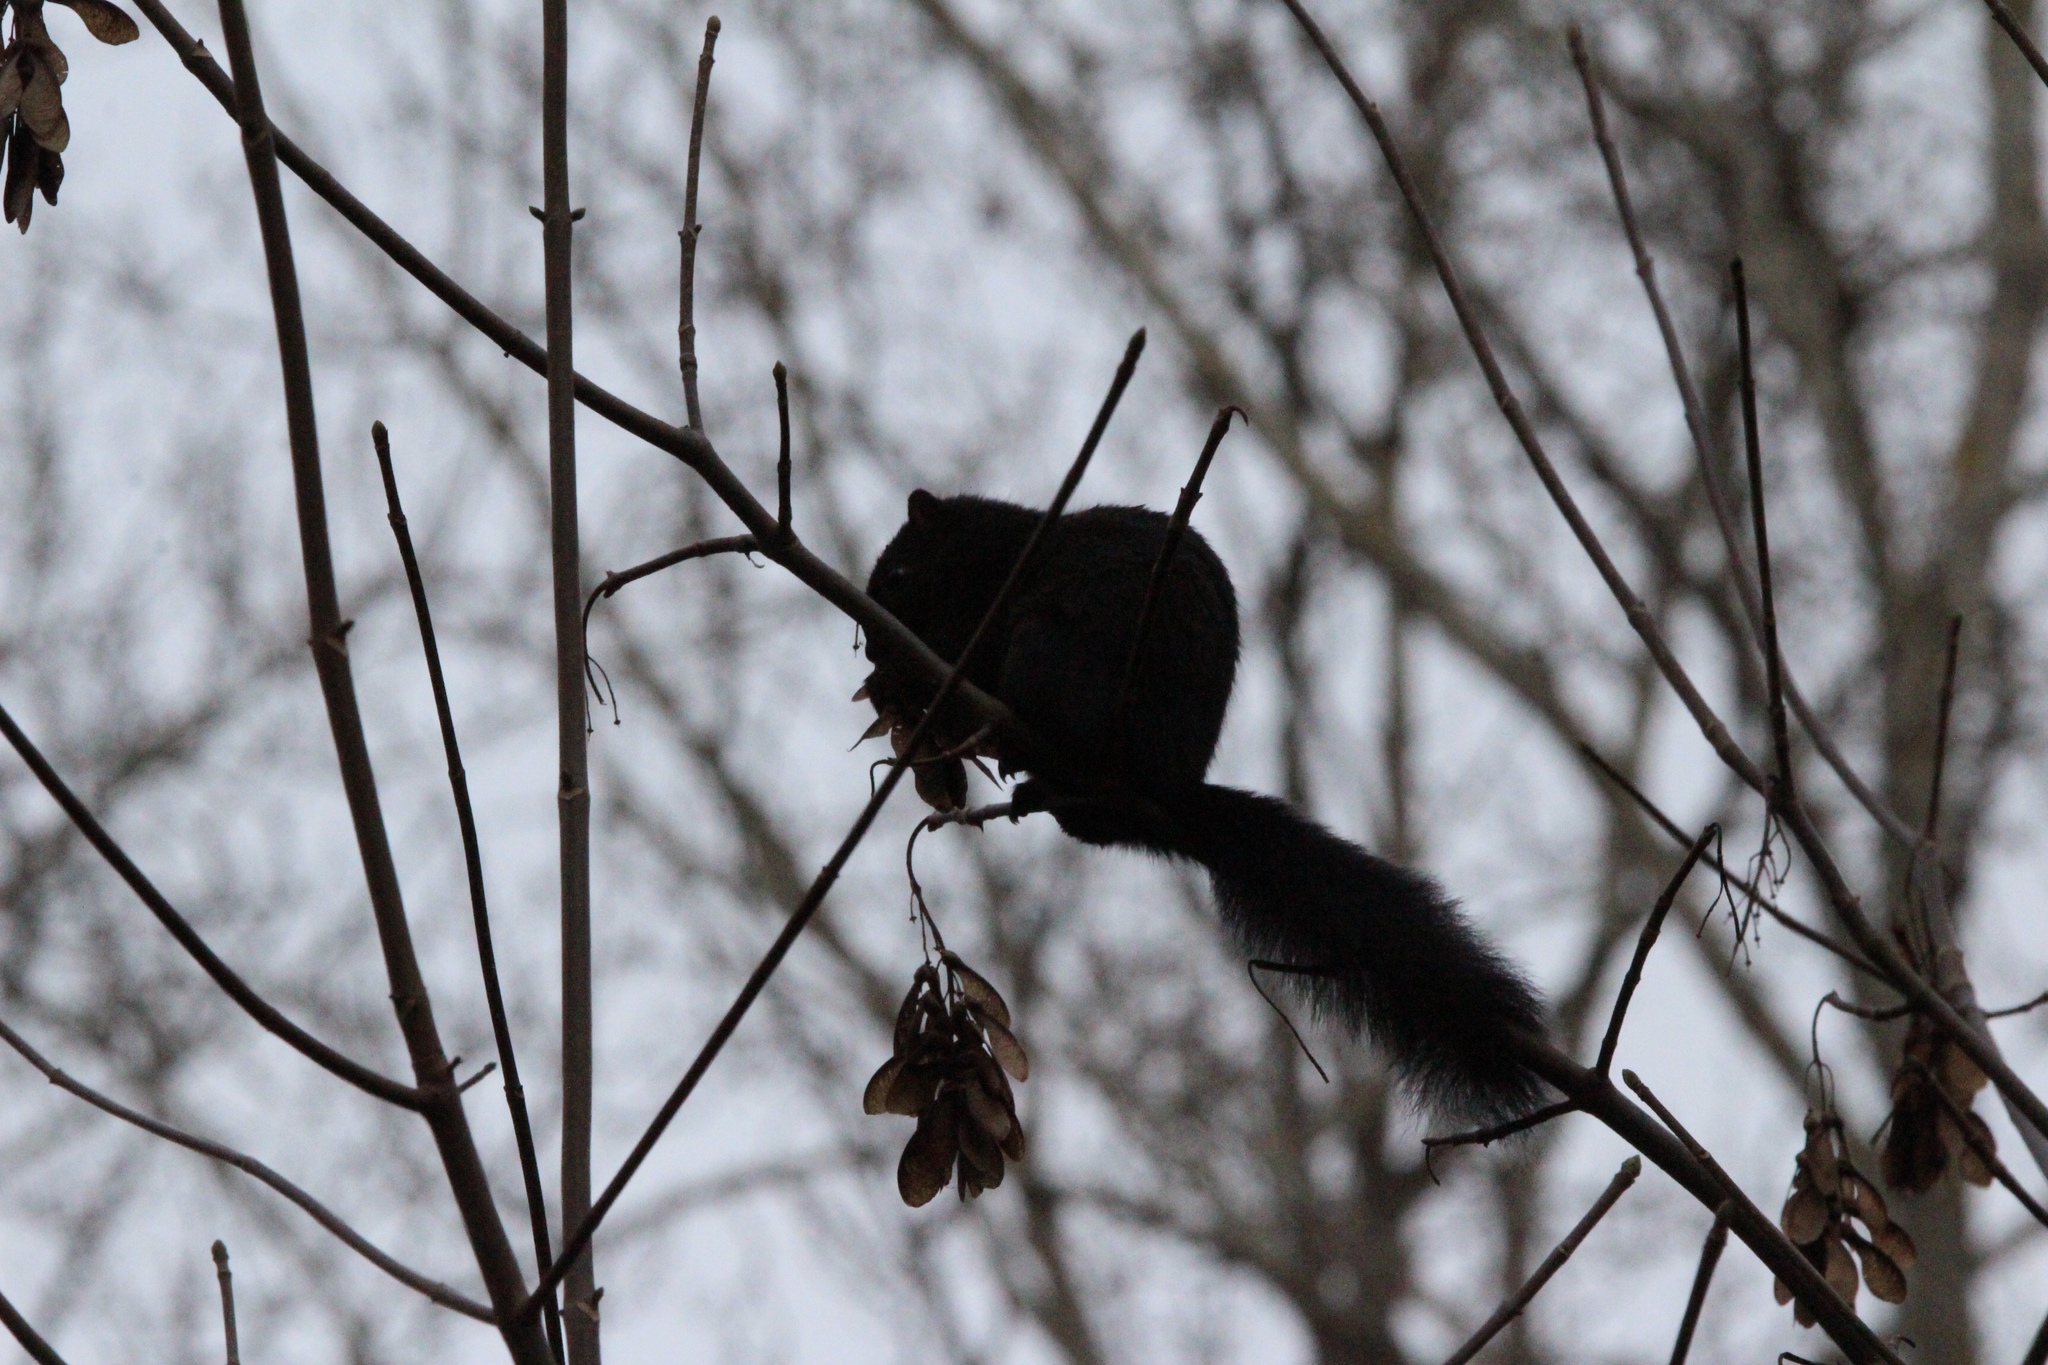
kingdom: Animalia
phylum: Chordata
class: Mammalia
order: Rodentia
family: Sciuridae
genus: Sciurus
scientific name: Sciurus carolinensis
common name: Eastern gray squirrel
